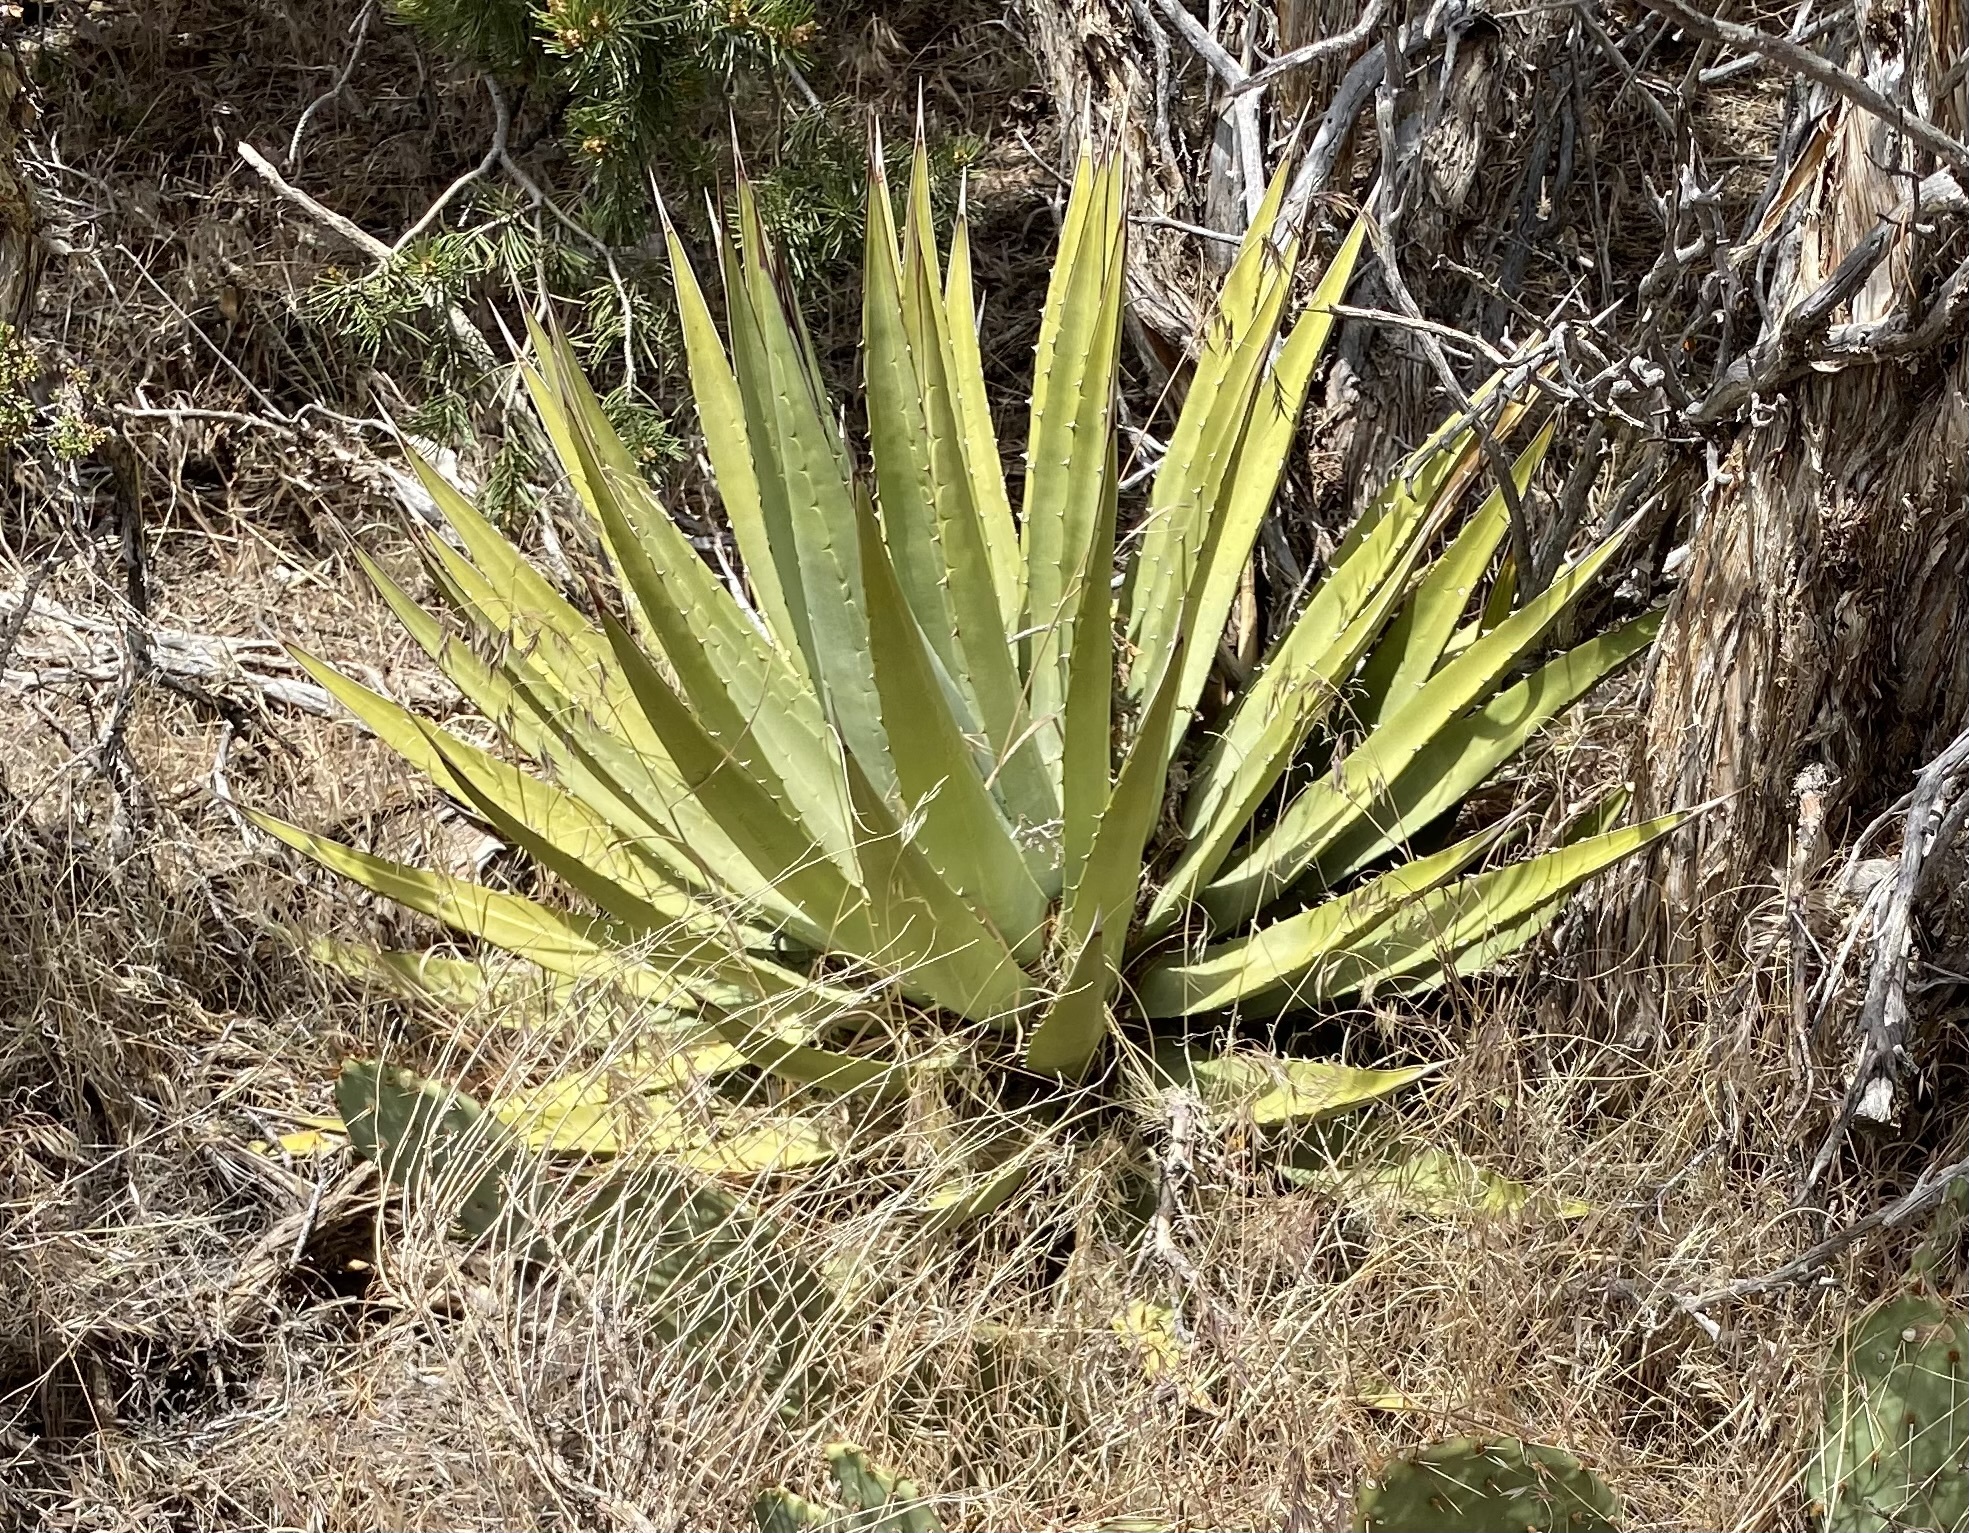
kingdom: Plantae
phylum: Tracheophyta
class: Liliopsida
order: Asparagales
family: Asparagaceae
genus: Agave
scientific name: Agave utahensis
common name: Utah agave
